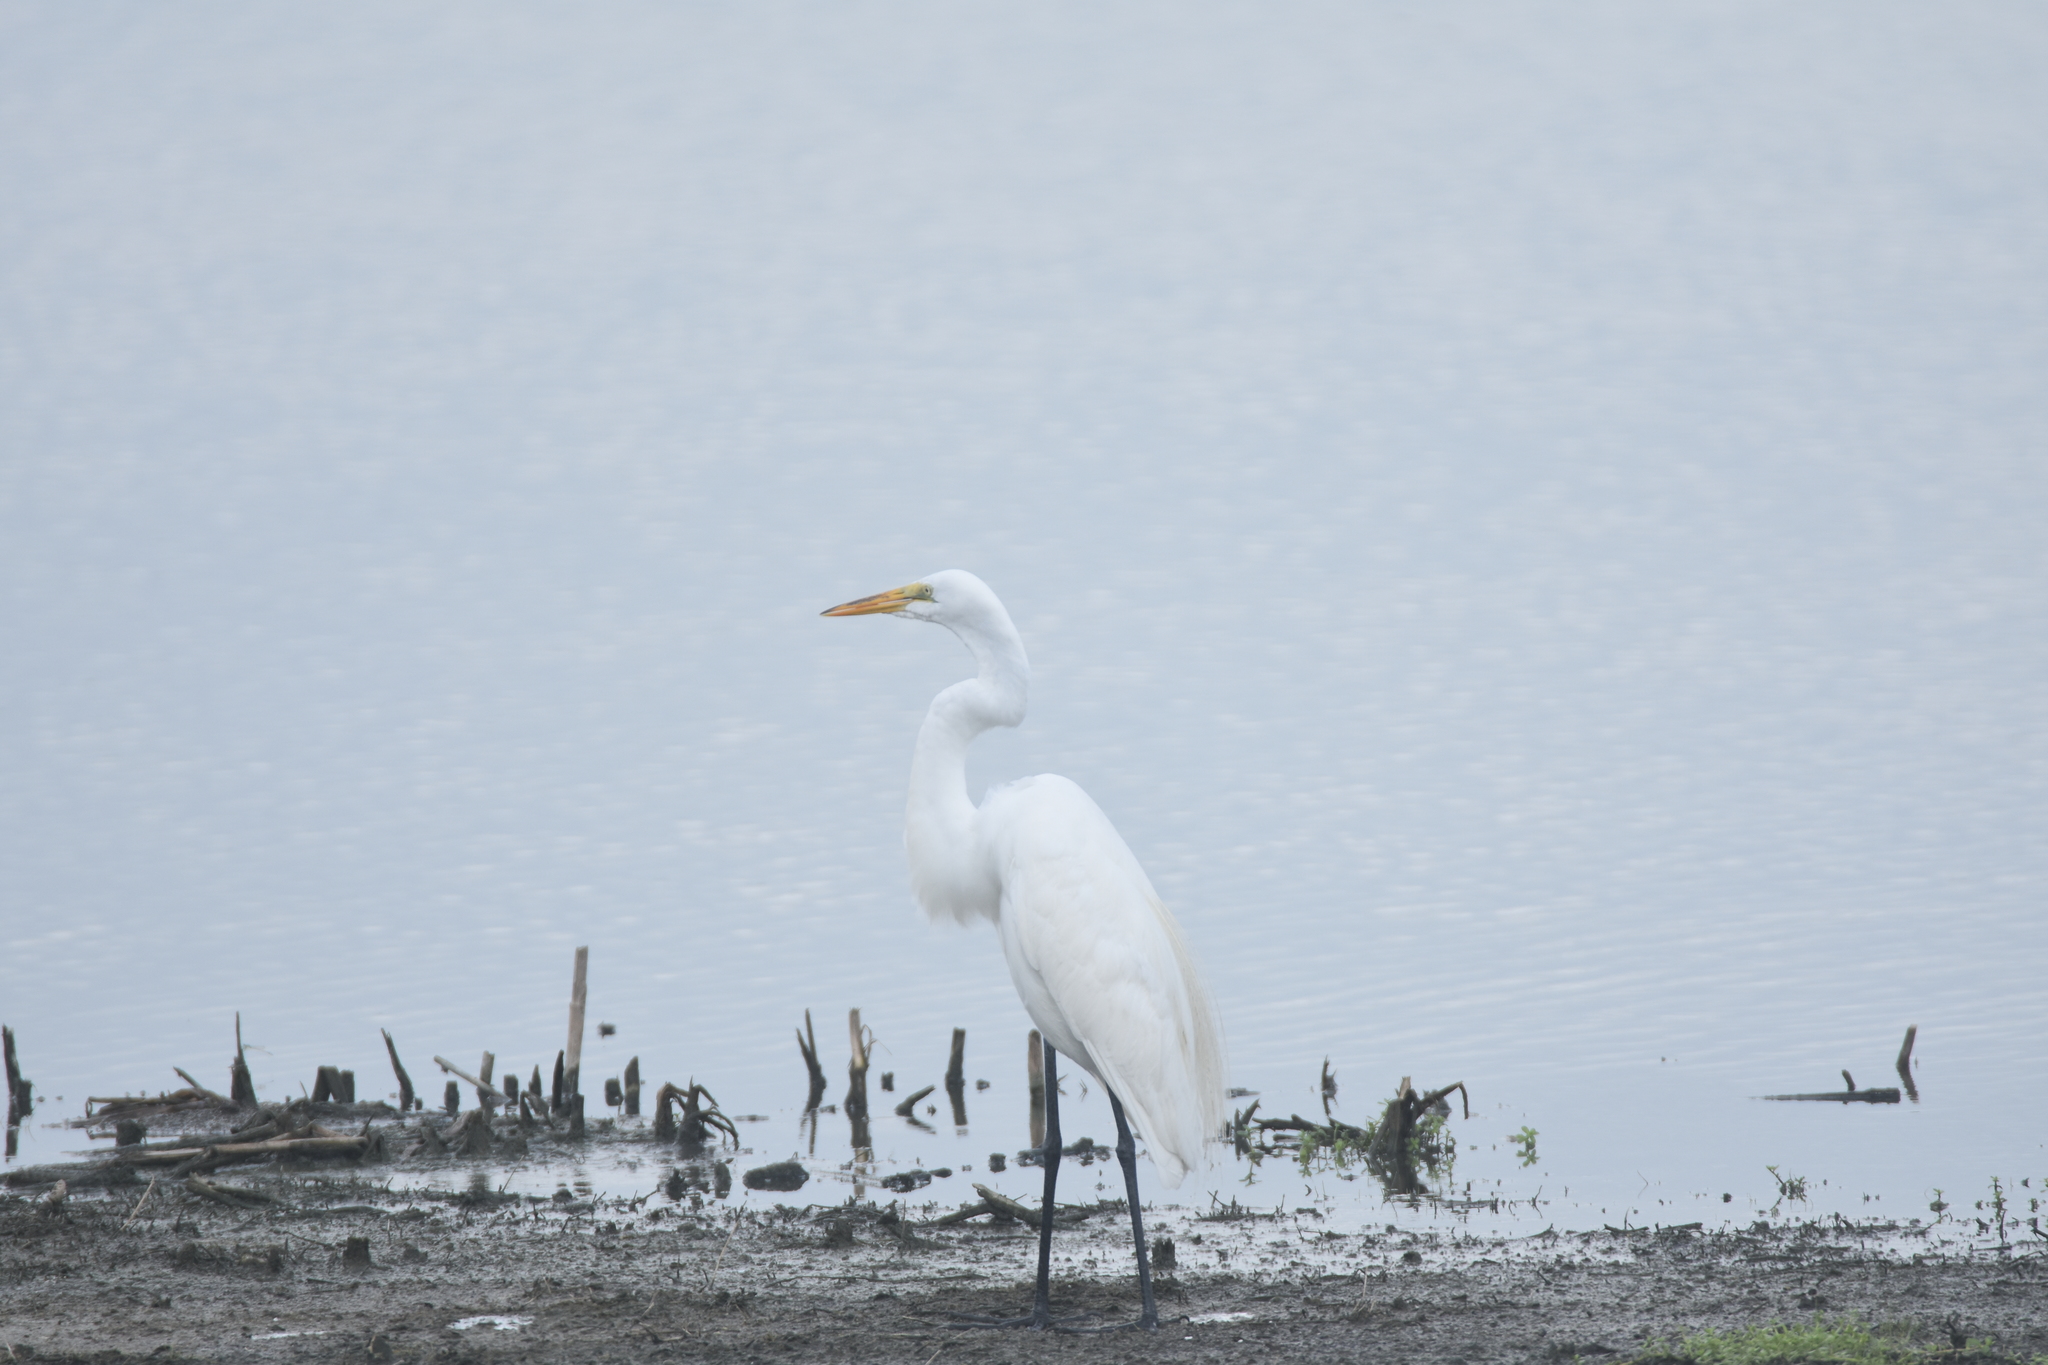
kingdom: Animalia
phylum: Chordata
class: Aves
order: Pelecaniformes
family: Ardeidae
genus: Ardea
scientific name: Ardea alba
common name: Great egret
